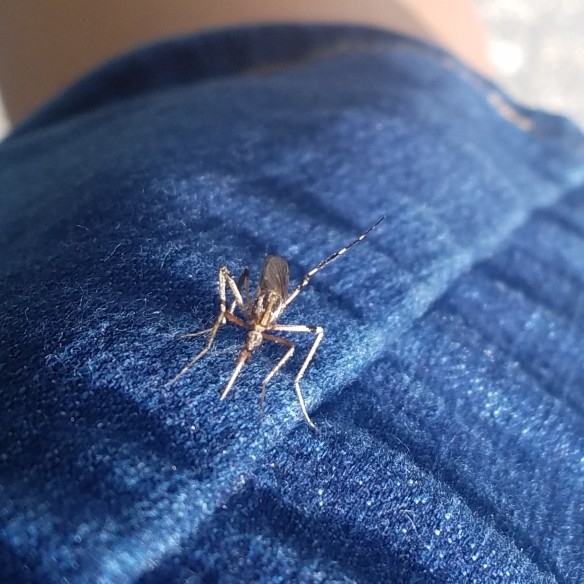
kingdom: Animalia
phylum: Arthropoda
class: Insecta
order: Diptera
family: Culicidae
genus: Psorophora
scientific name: Psorophora ciliata
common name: Gallinipper
